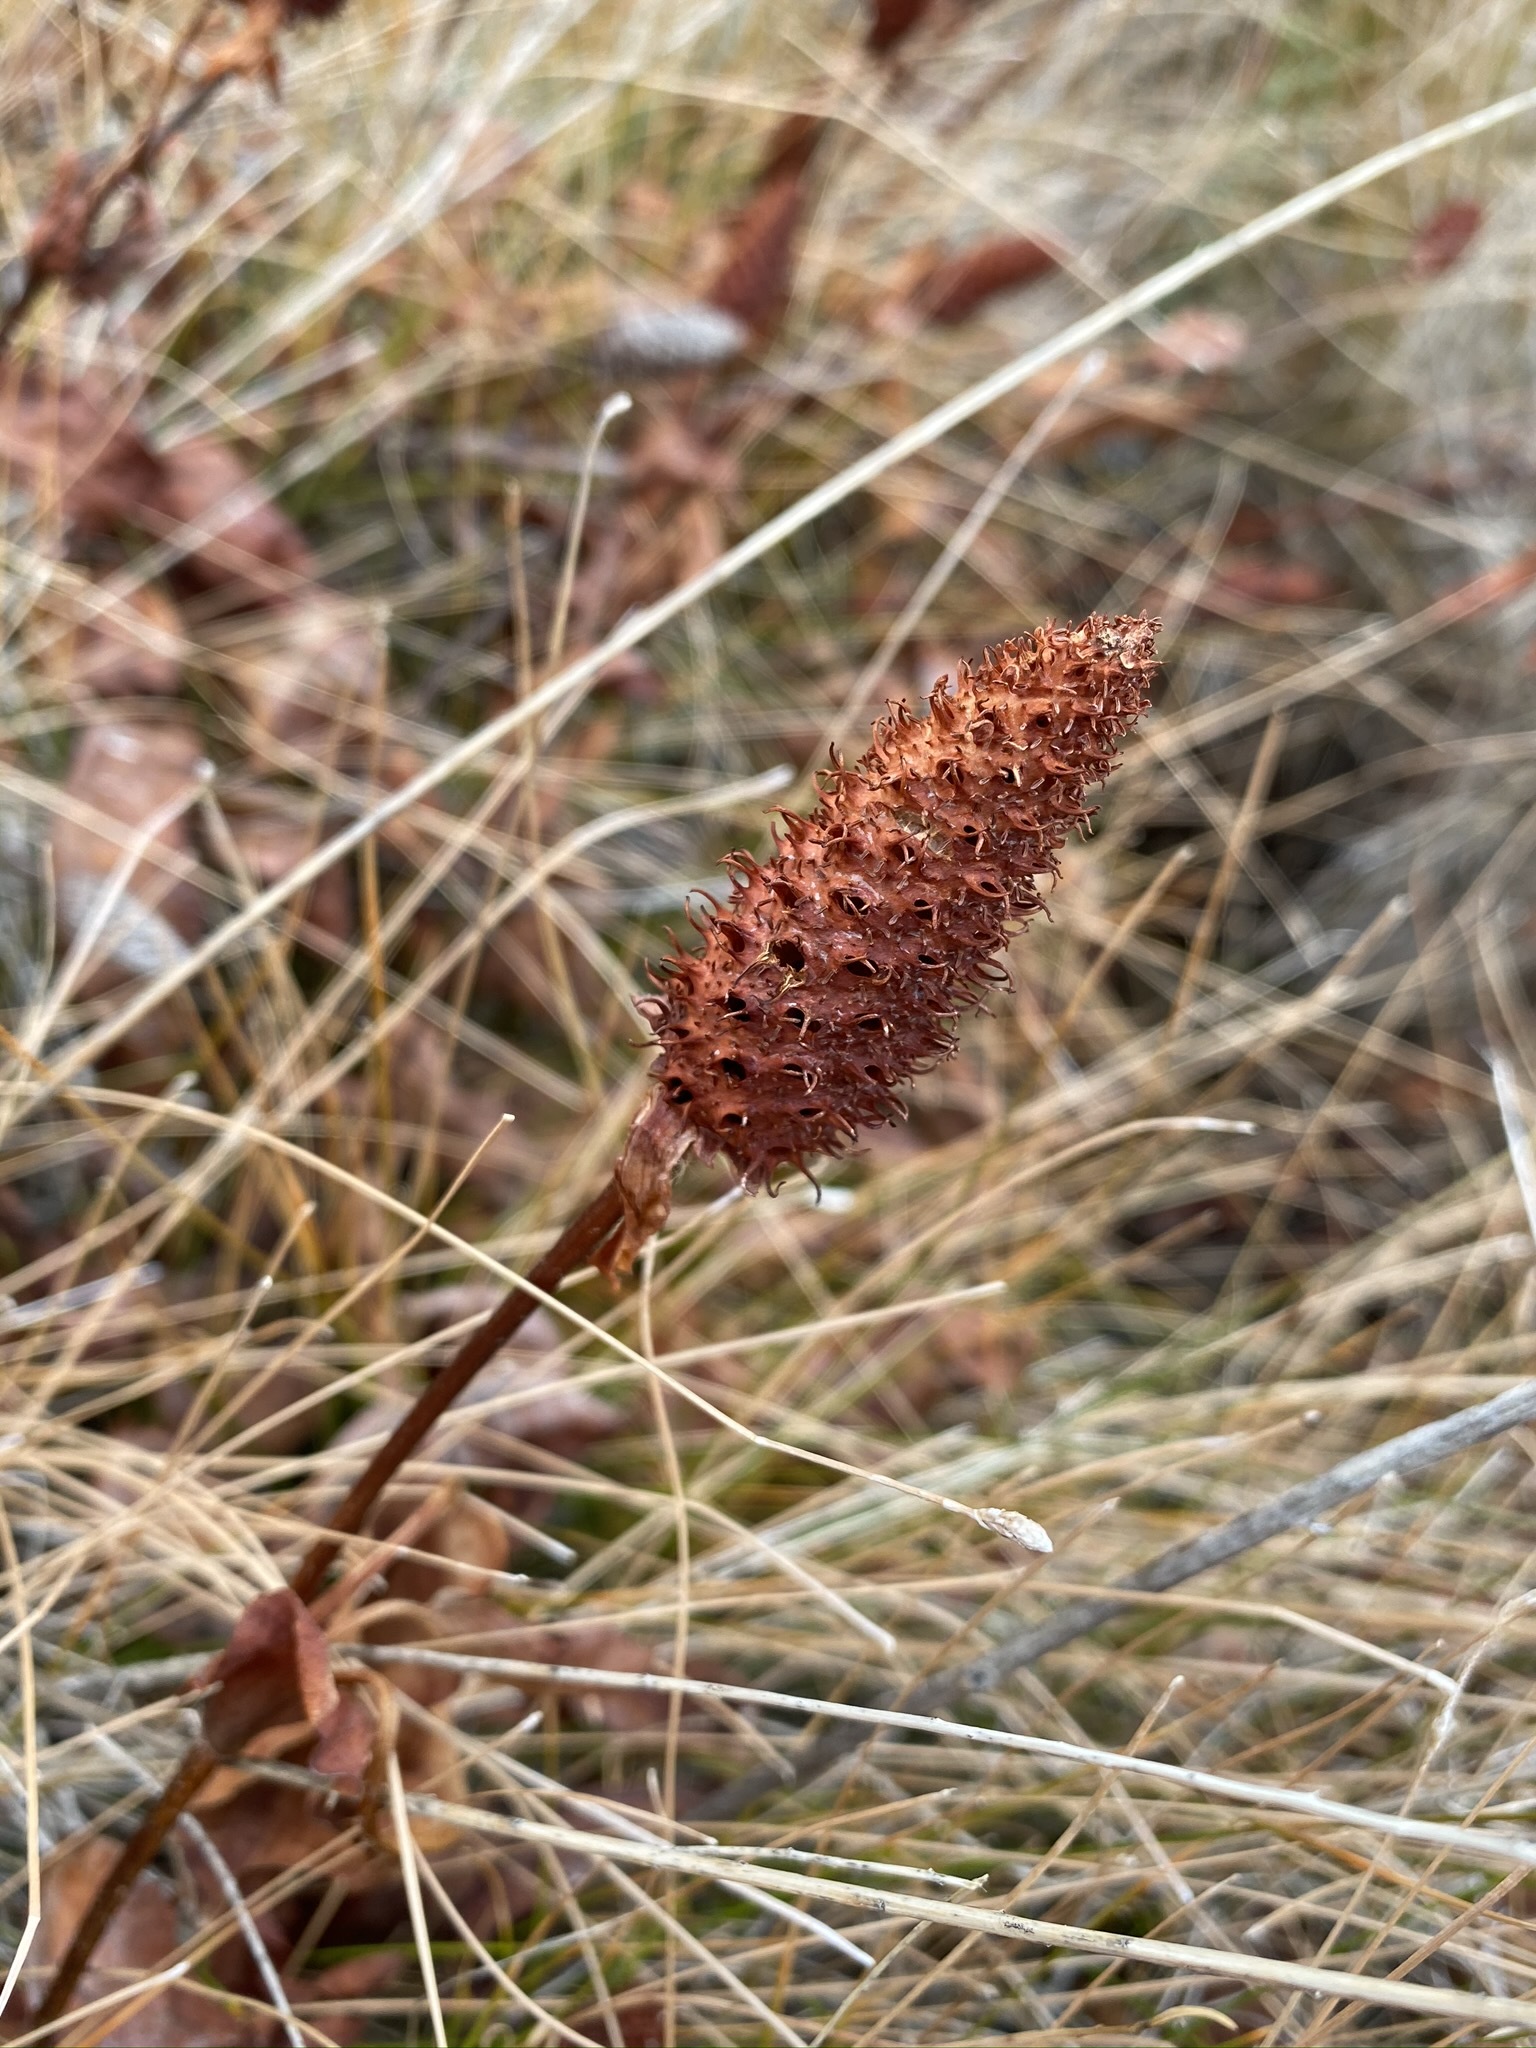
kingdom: Plantae
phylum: Tracheophyta
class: Magnoliopsida
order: Piperales
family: Saururaceae
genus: Anemopsis
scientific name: Anemopsis californica
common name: Apache-beads
